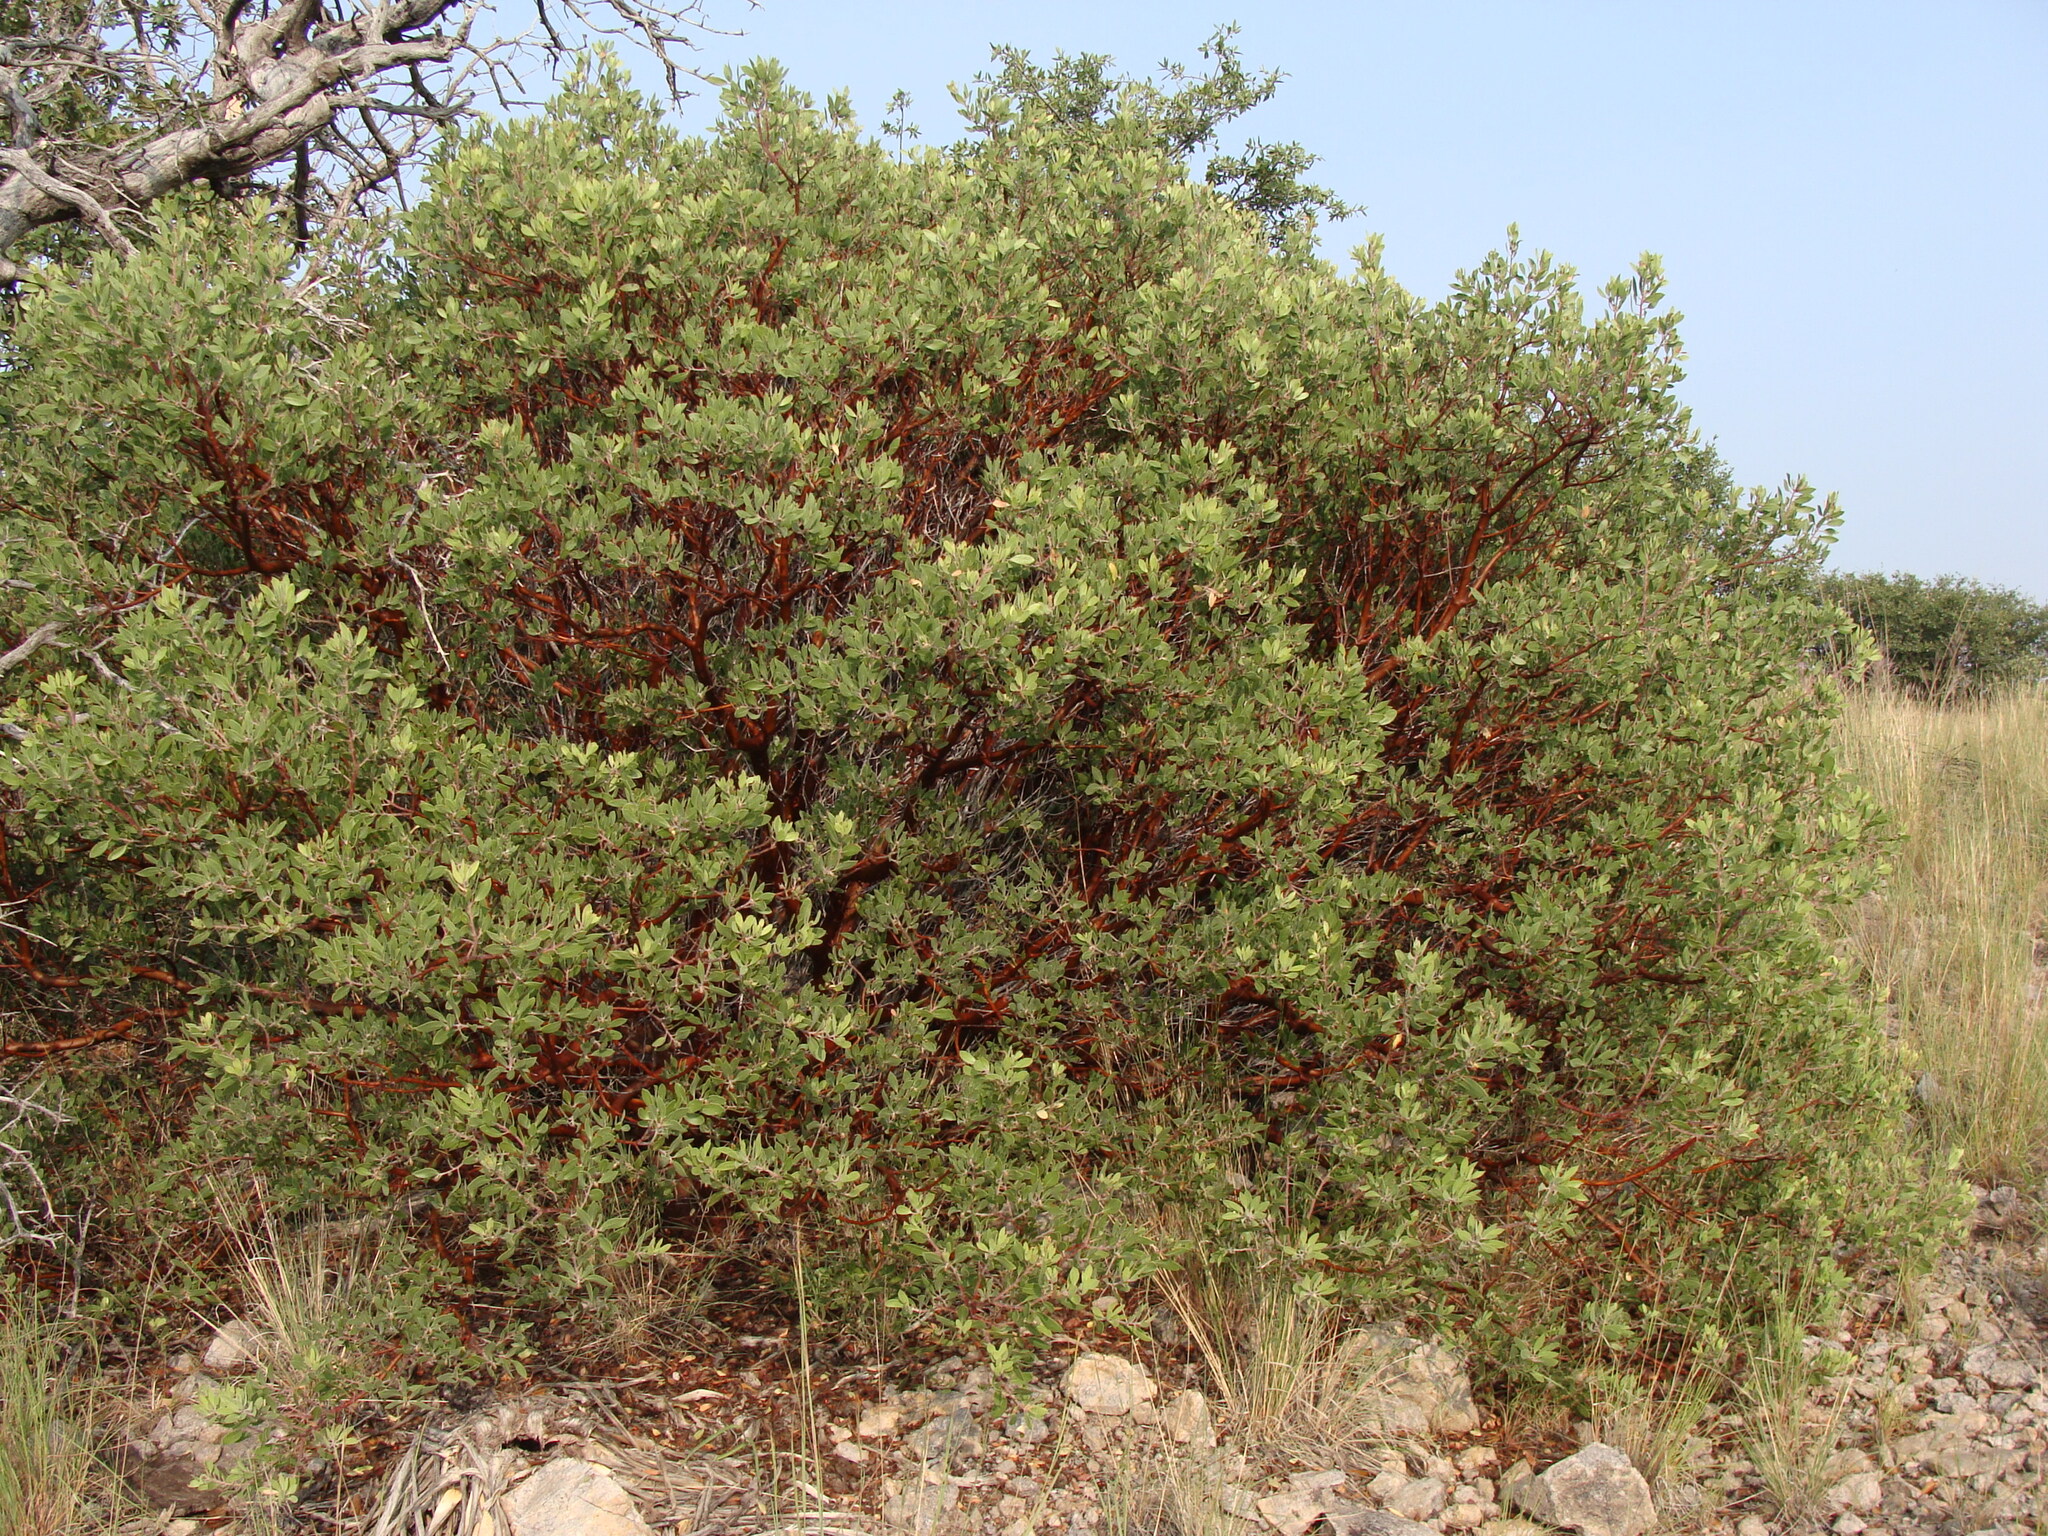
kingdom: Plantae
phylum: Tracheophyta
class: Magnoliopsida
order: Ericales
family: Ericaceae
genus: Arctostaphylos
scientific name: Arctostaphylos pungens
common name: Mexican manzanita
